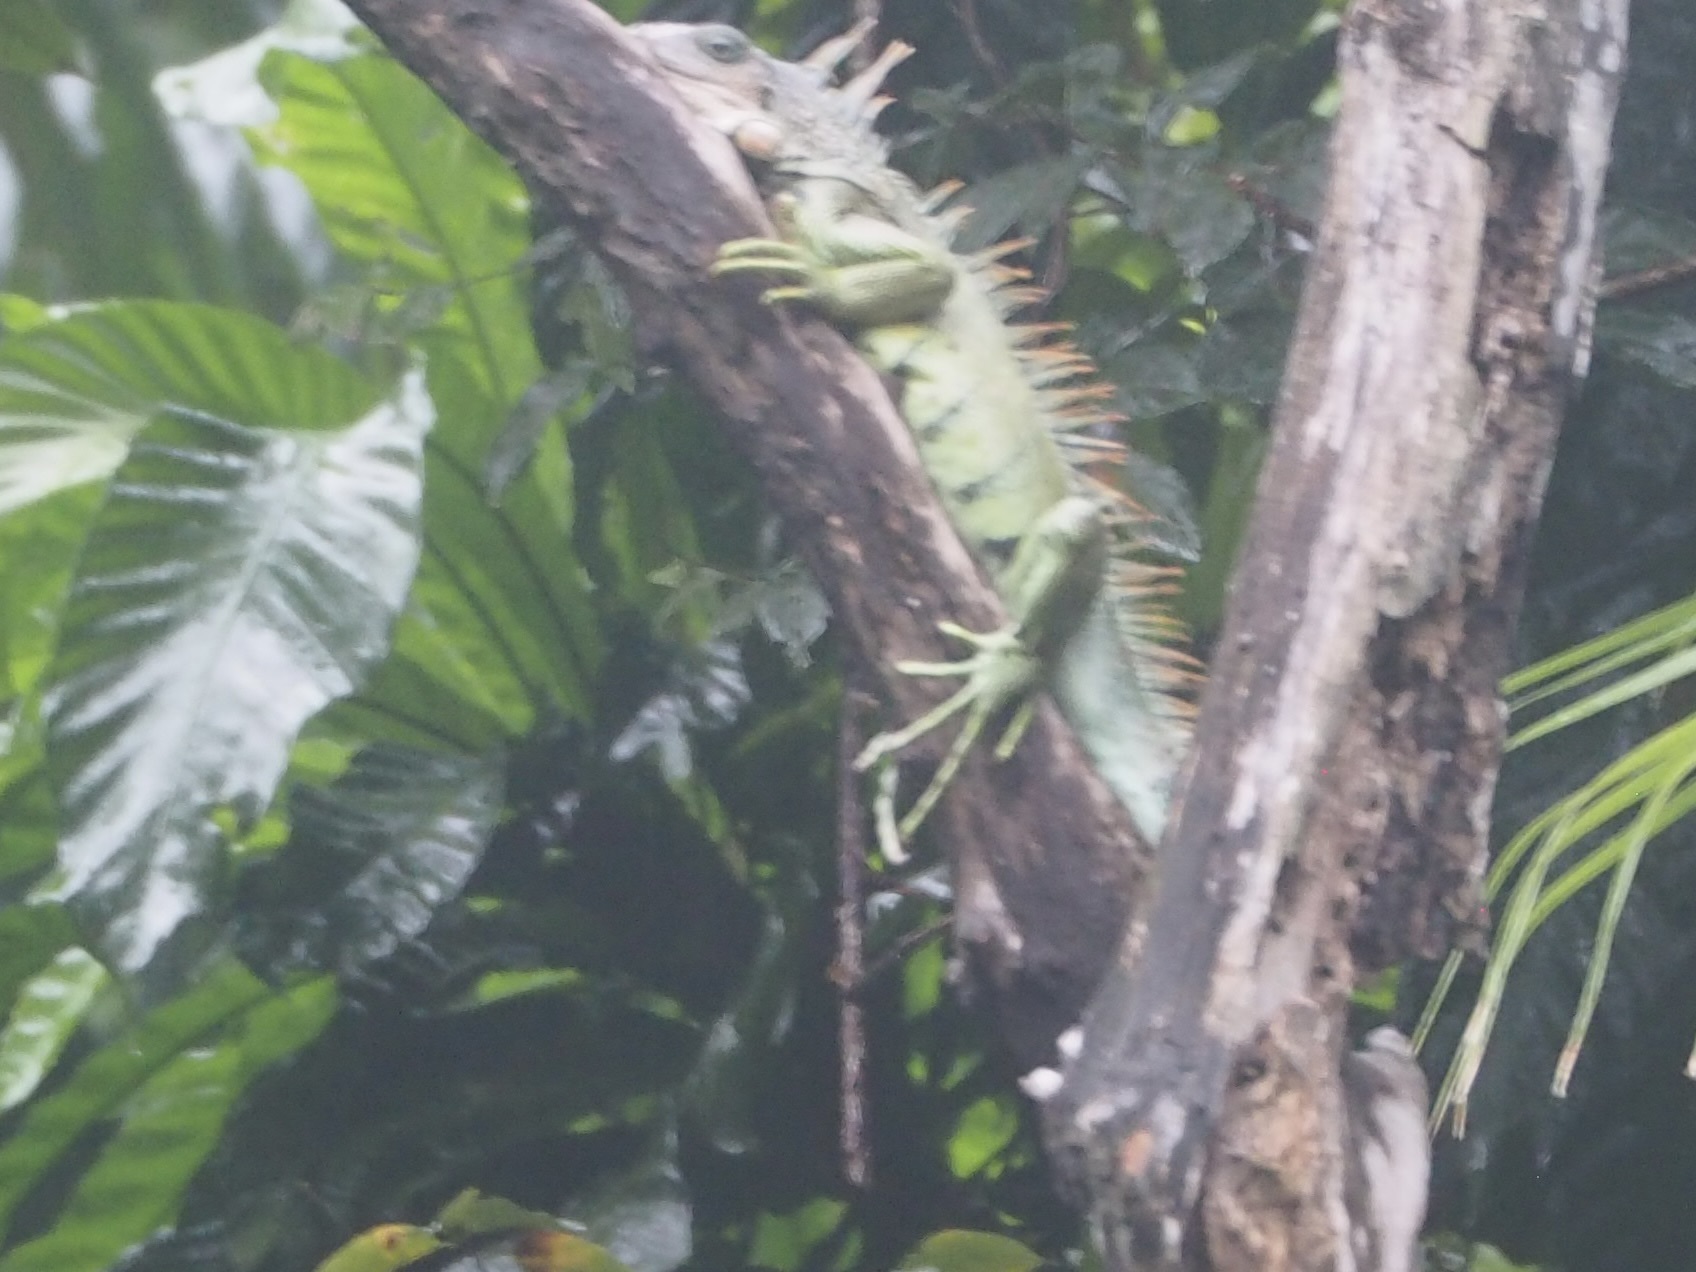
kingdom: Animalia
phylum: Chordata
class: Squamata
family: Iguanidae
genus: Iguana
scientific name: Iguana iguana
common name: Green iguana
